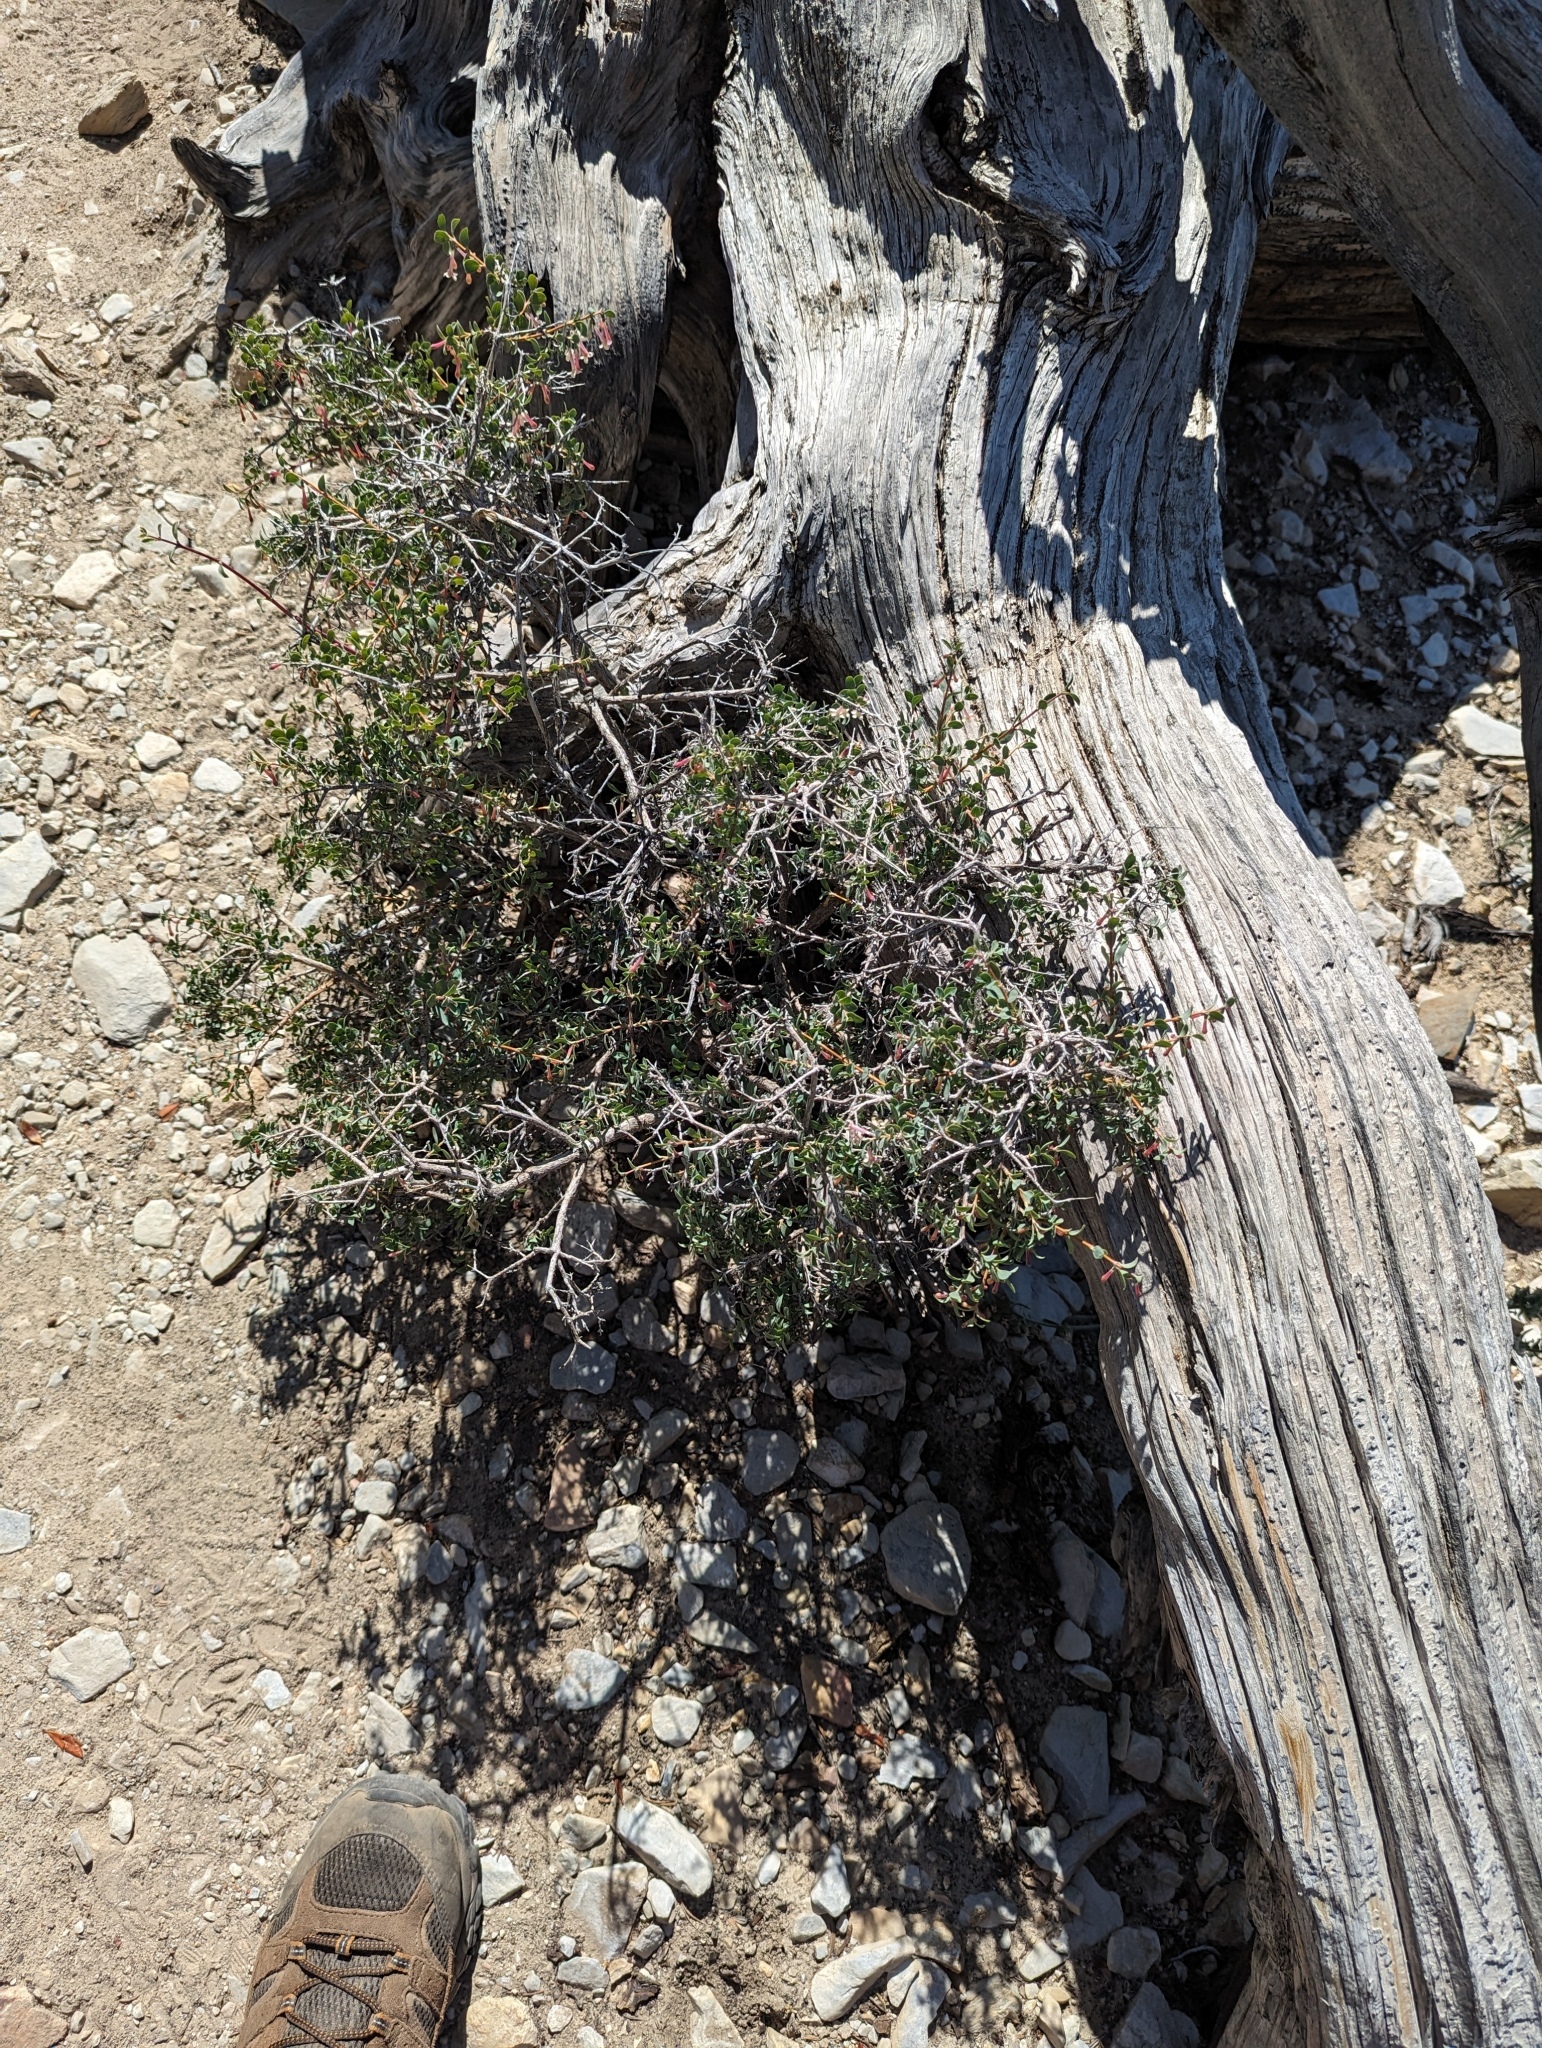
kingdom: Plantae
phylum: Tracheophyta
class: Magnoliopsida
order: Dipsacales
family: Caprifoliaceae
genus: Symphoricarpos
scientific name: Symphoricarpos longiflorus
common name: Fragrant snowberry
